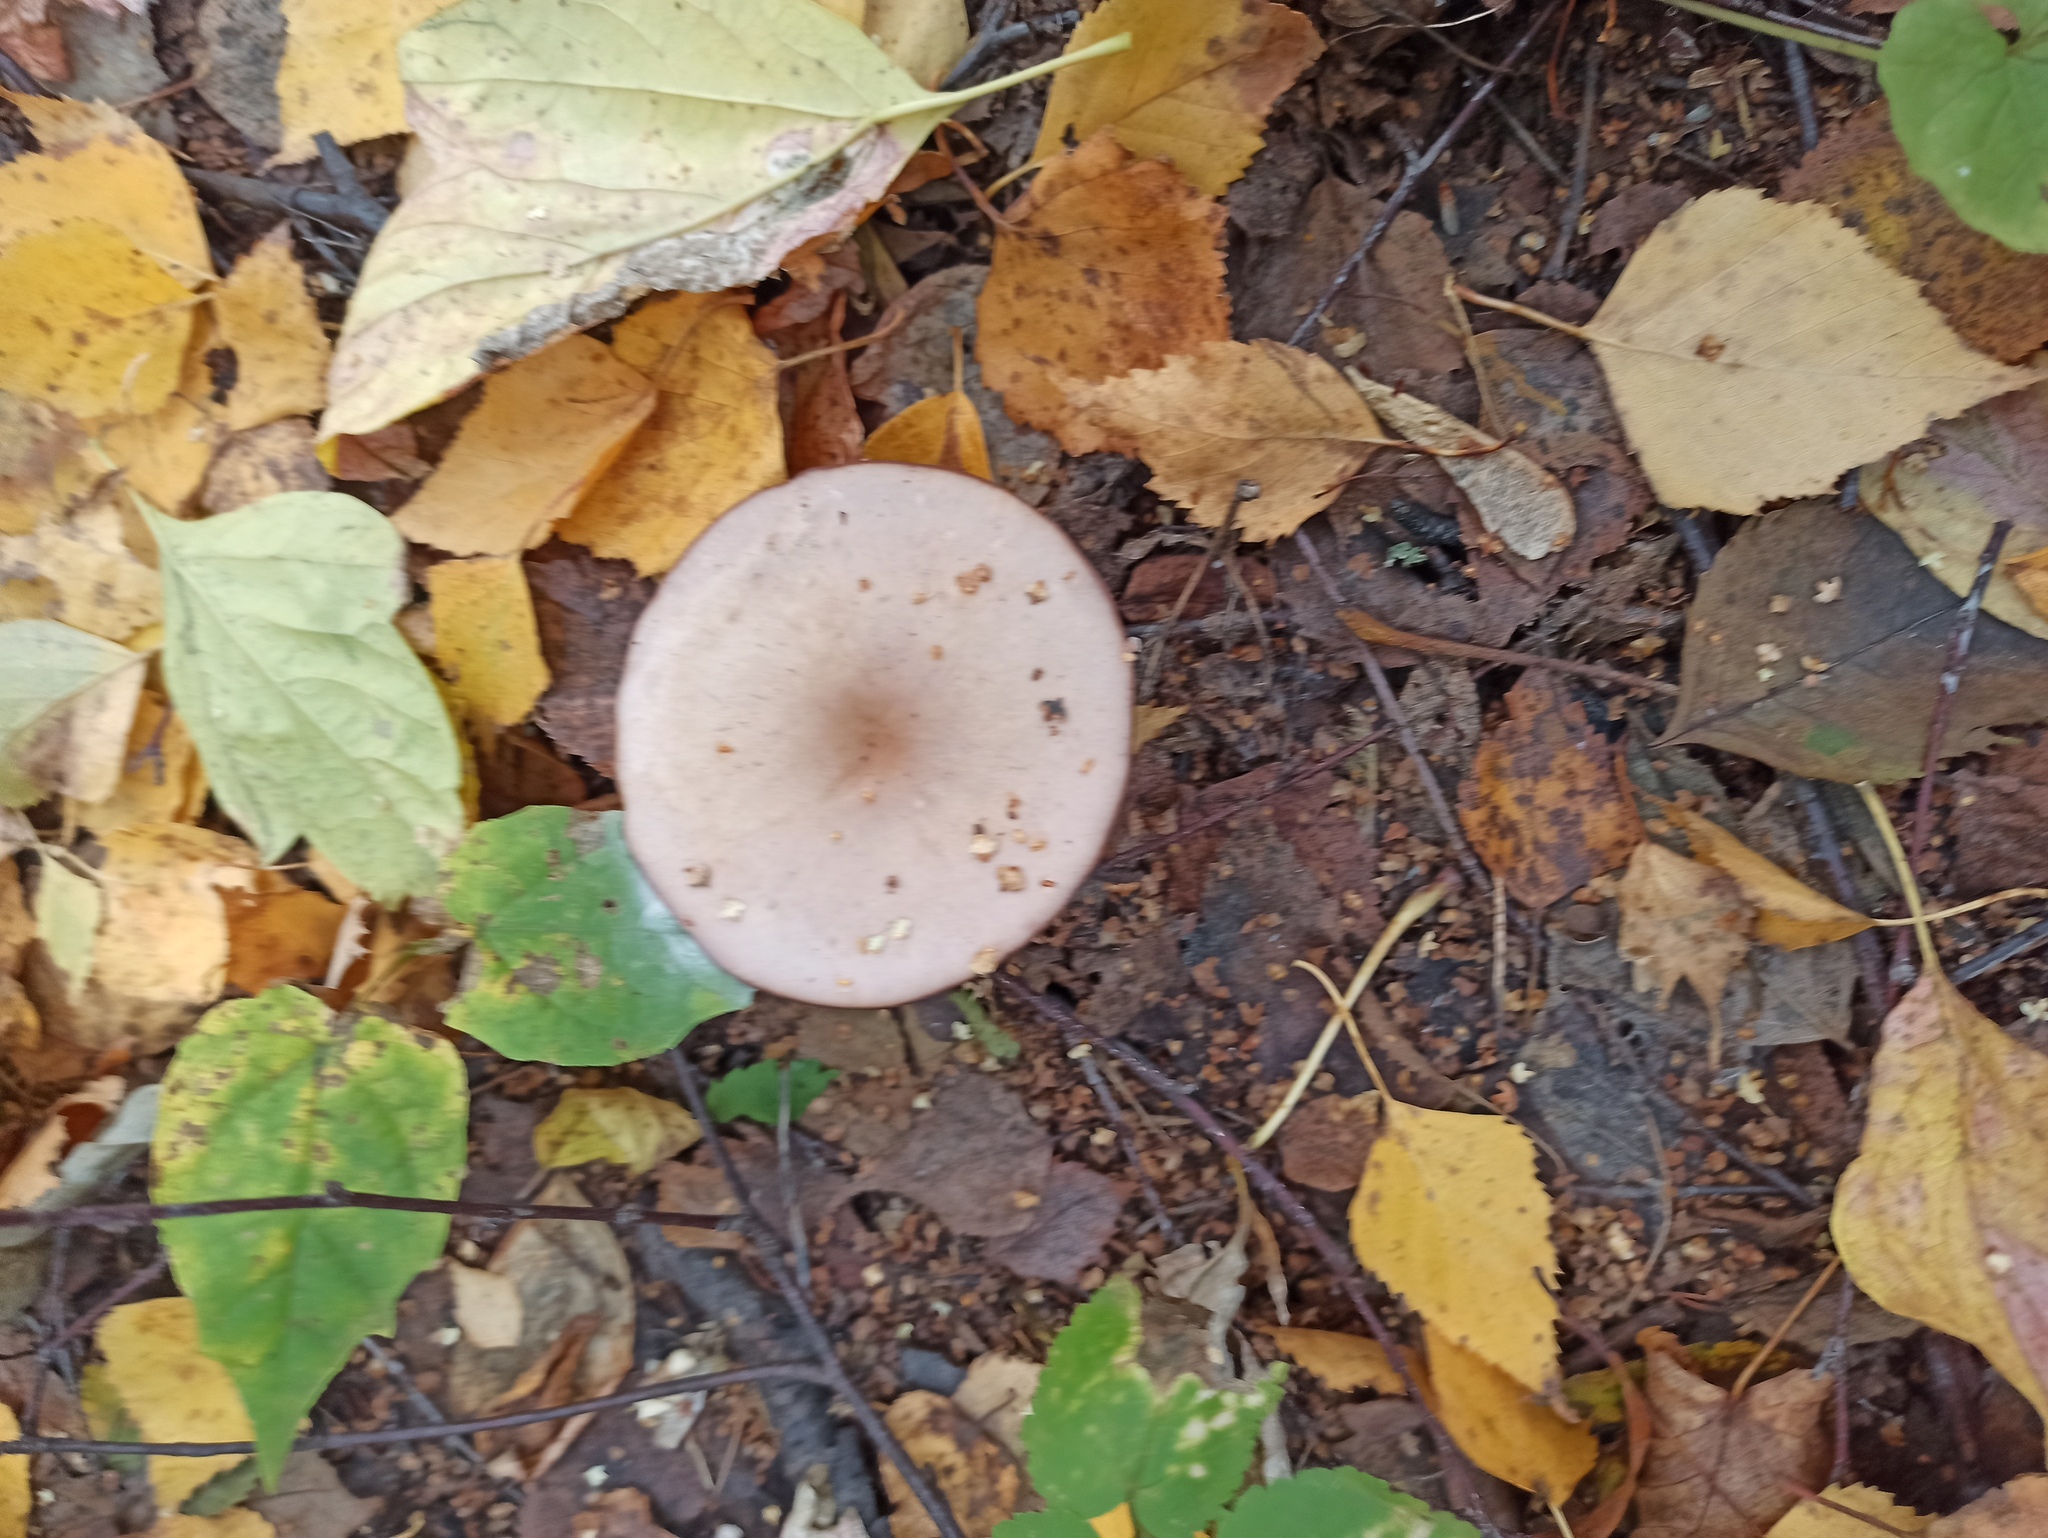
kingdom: Fungi
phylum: Basidiomycota
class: Agaricomycetes
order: Agaricales
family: Tricholomataceae
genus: Collybia
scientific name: Collybia
